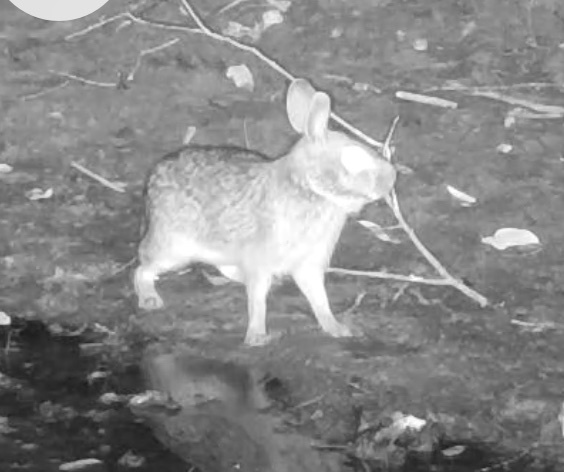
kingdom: Animalia
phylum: Chordata
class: Mammalia
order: Lagomorpha
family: Leporidae
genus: Sylvilagus
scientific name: Sylvilagus aquaticus
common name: Swamp rabbit
